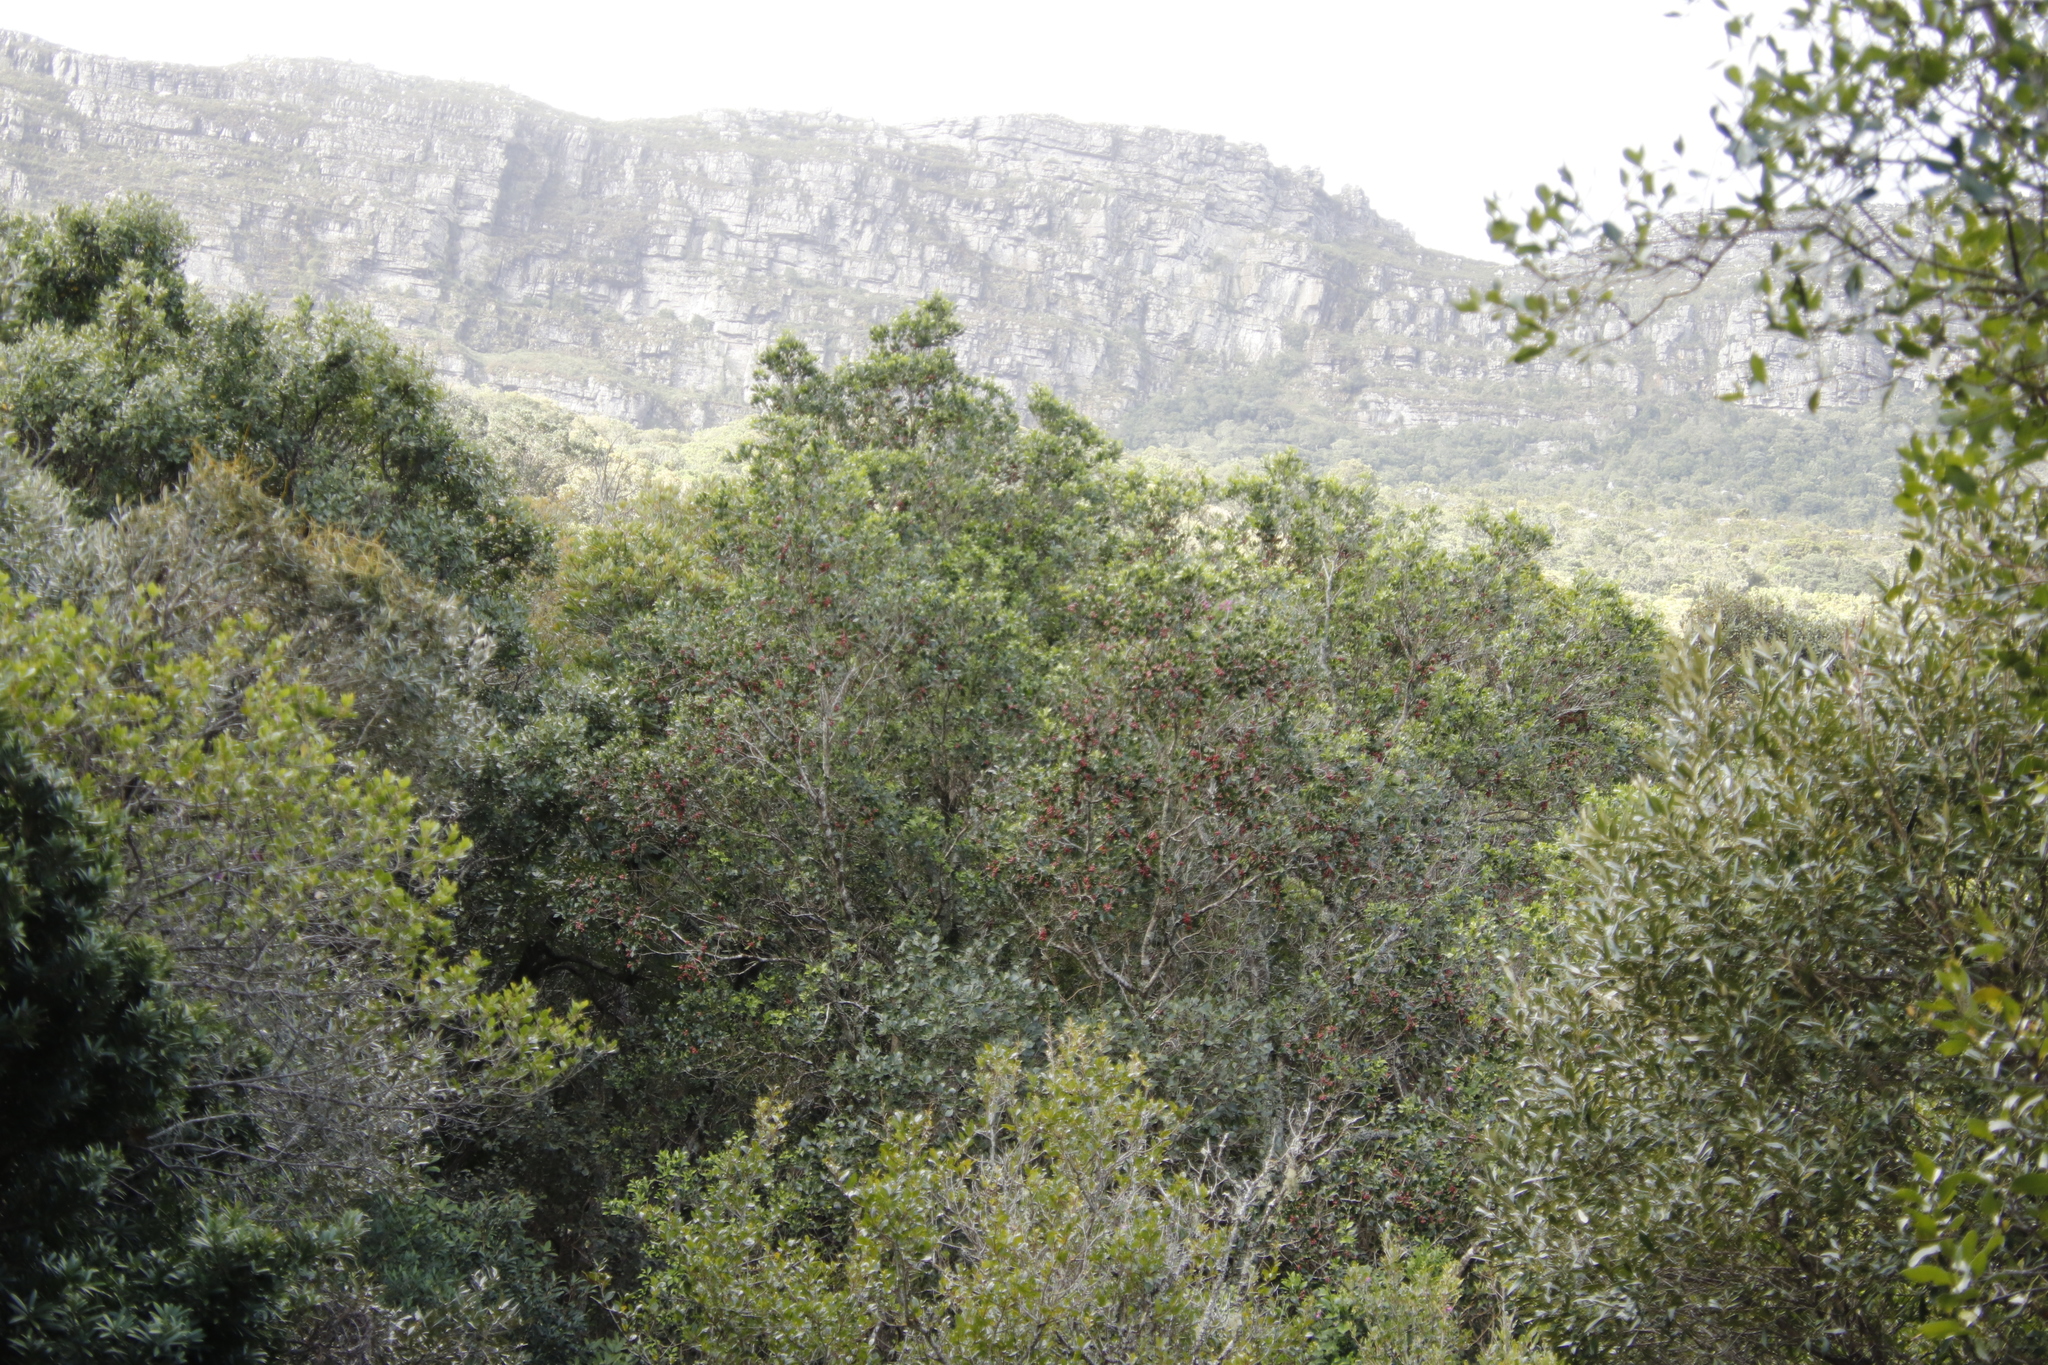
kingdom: Plantae
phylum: Tracheophyta
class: Magnoliopsida
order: Myrtales
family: Penaeaceae
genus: Olinia
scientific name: Olinia ventosa
